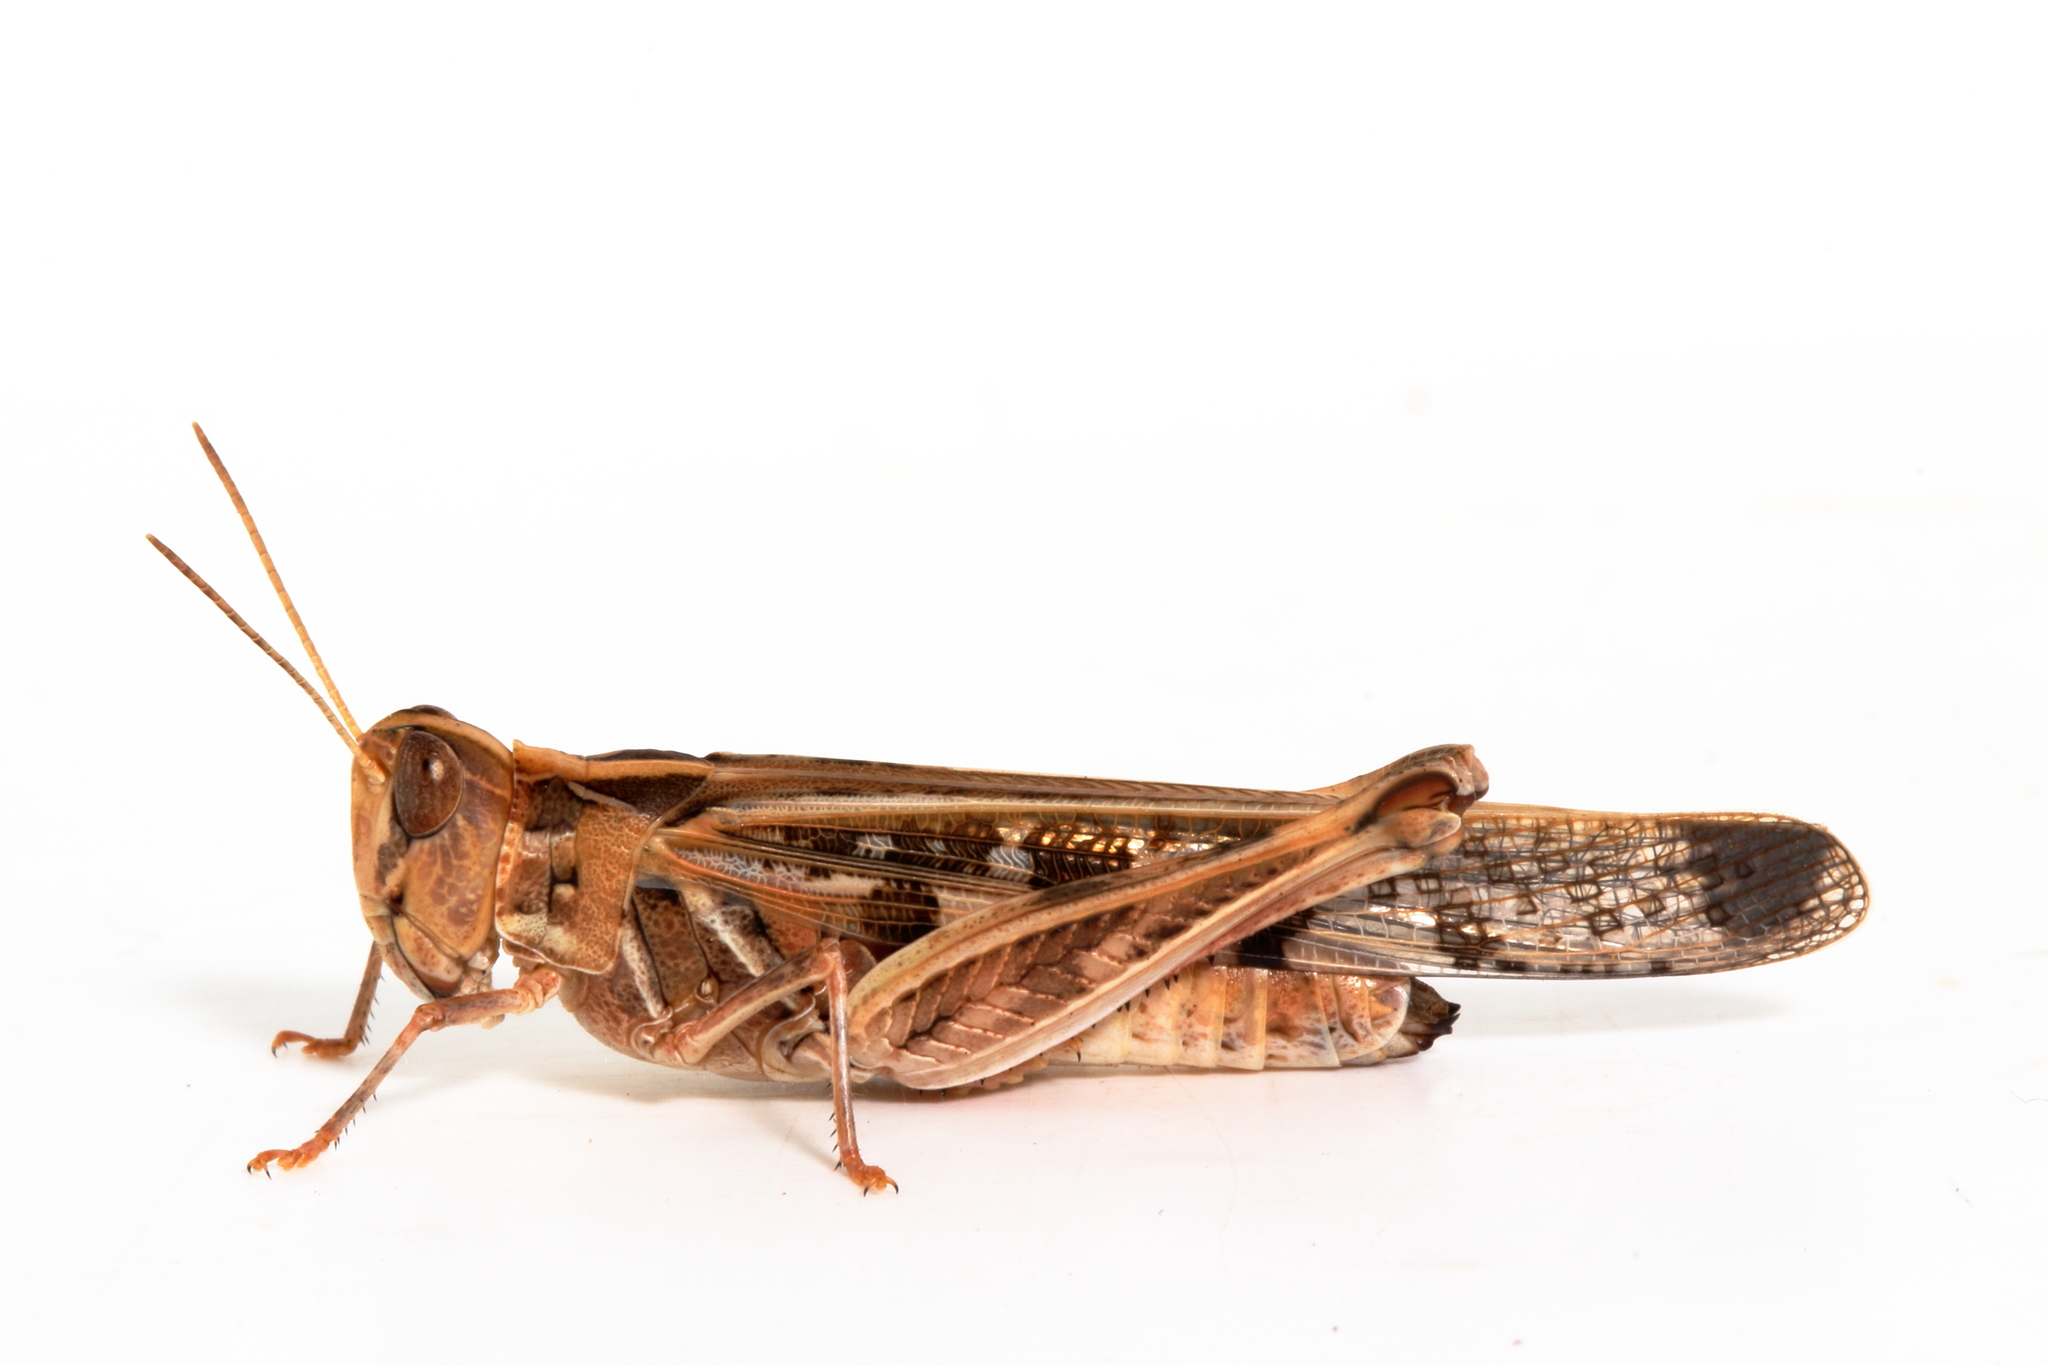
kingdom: Animalia
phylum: Arthropoda
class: Insecta
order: Orthoptera
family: Acrididae
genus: Chortoicetes
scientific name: Chortoicetes terminifera
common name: Australian plague locust
